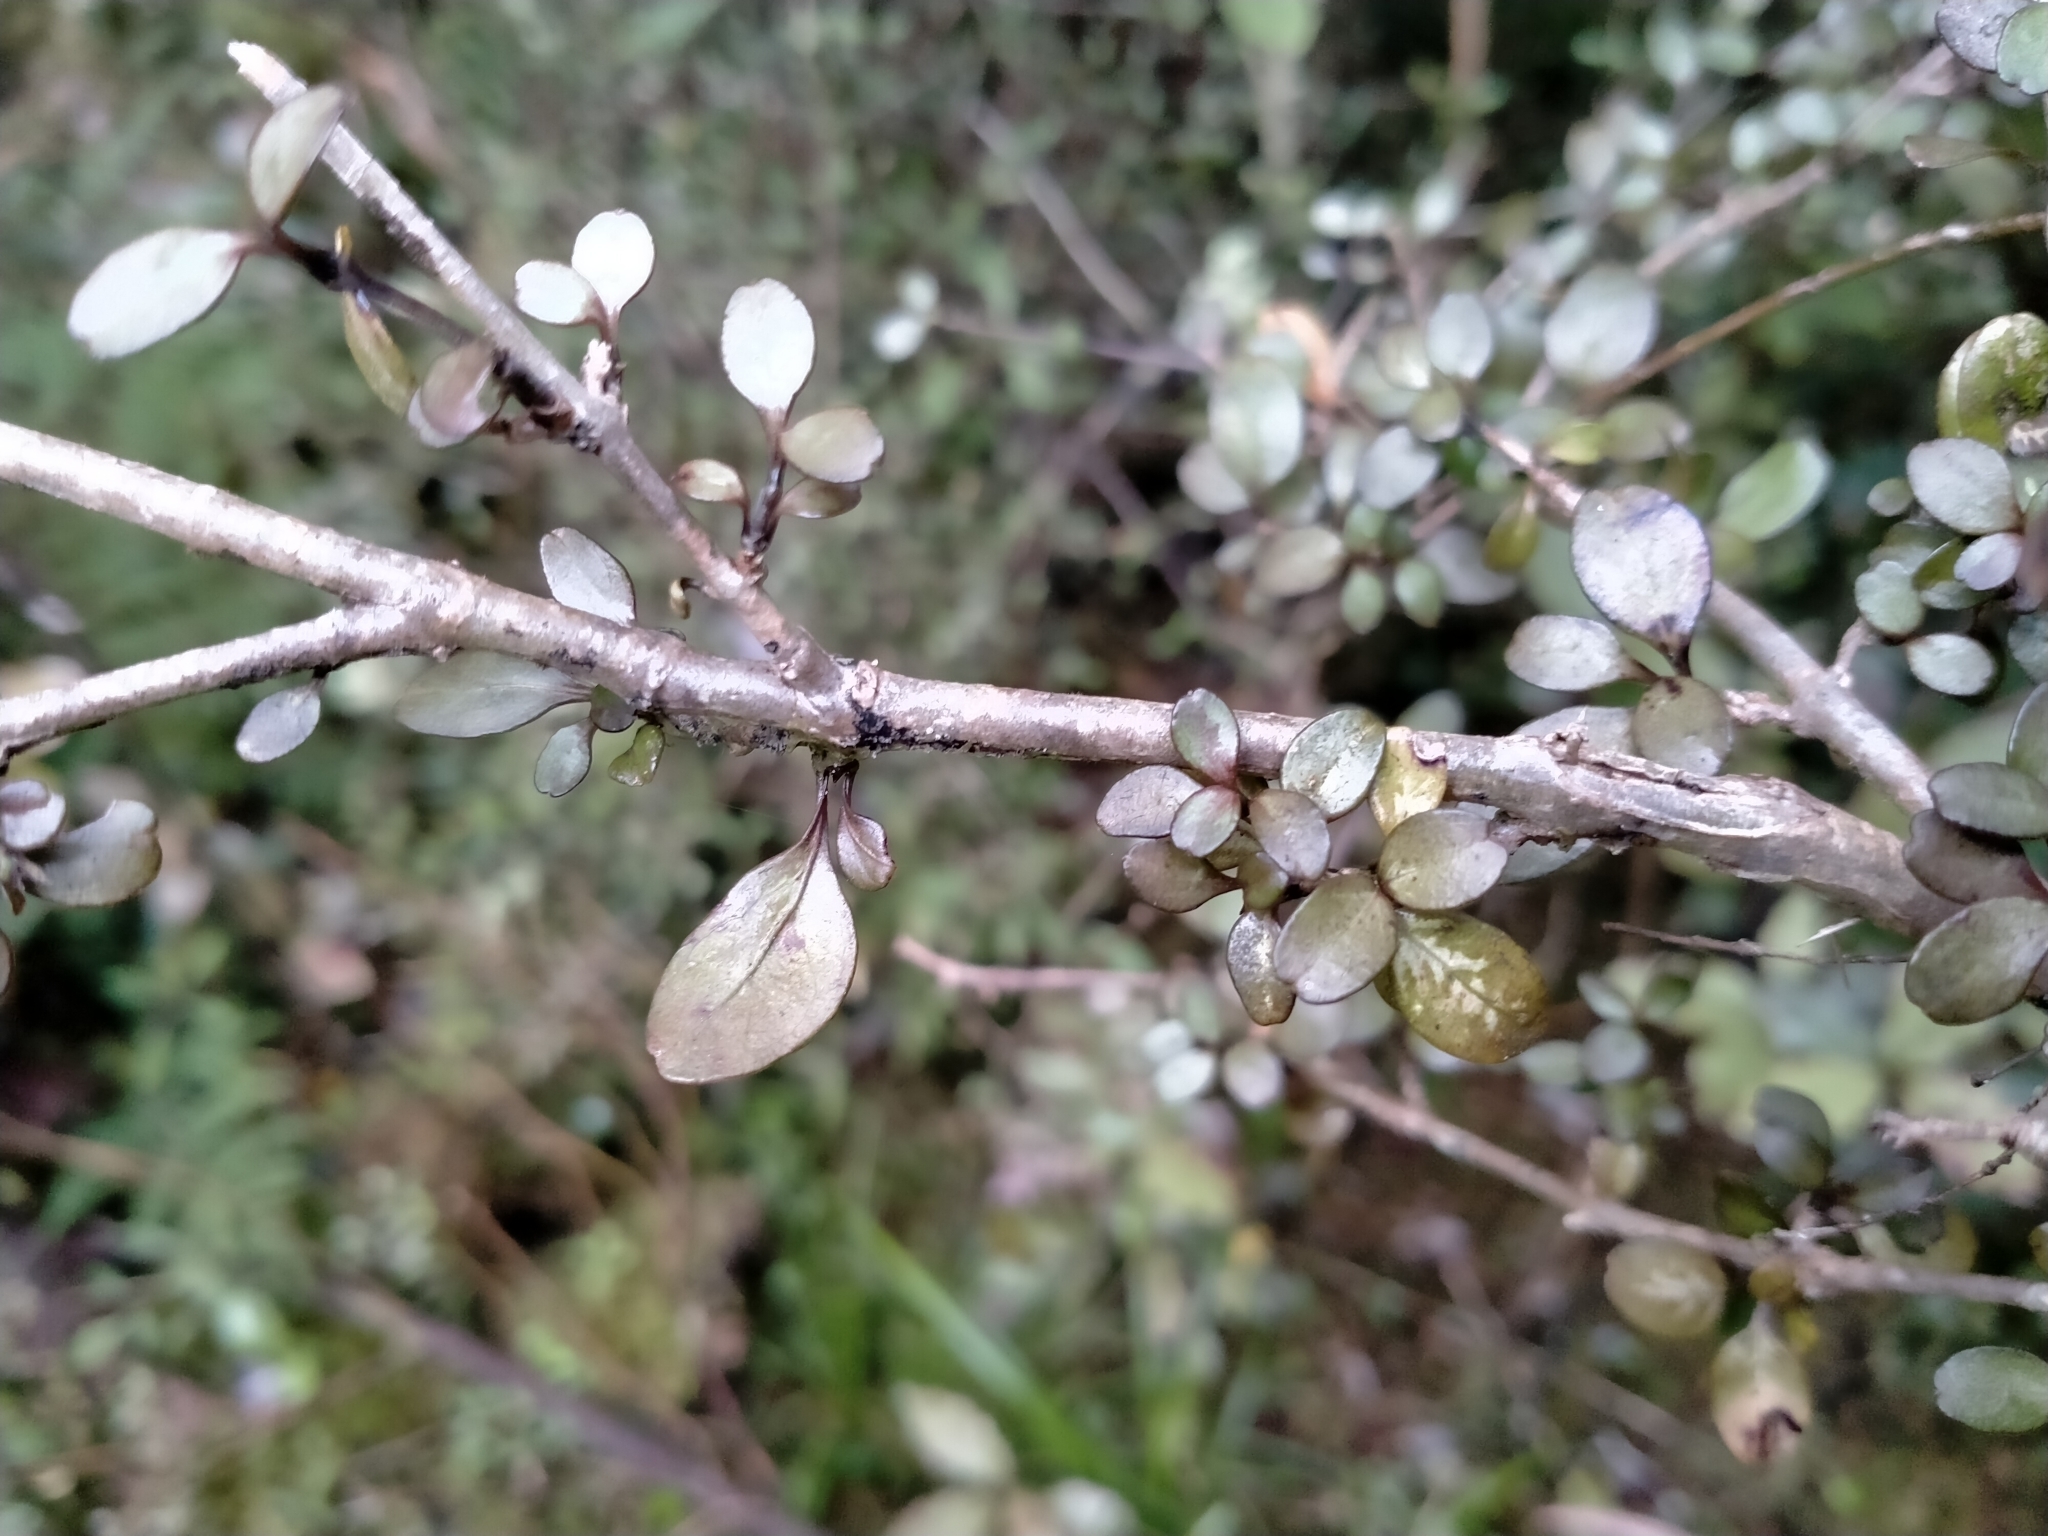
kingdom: Plantae
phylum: Tracheophyta
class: Magnoliopsida
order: Gentianales
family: Rubiaceae
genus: Coprosma
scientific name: Coprosma colensoi
